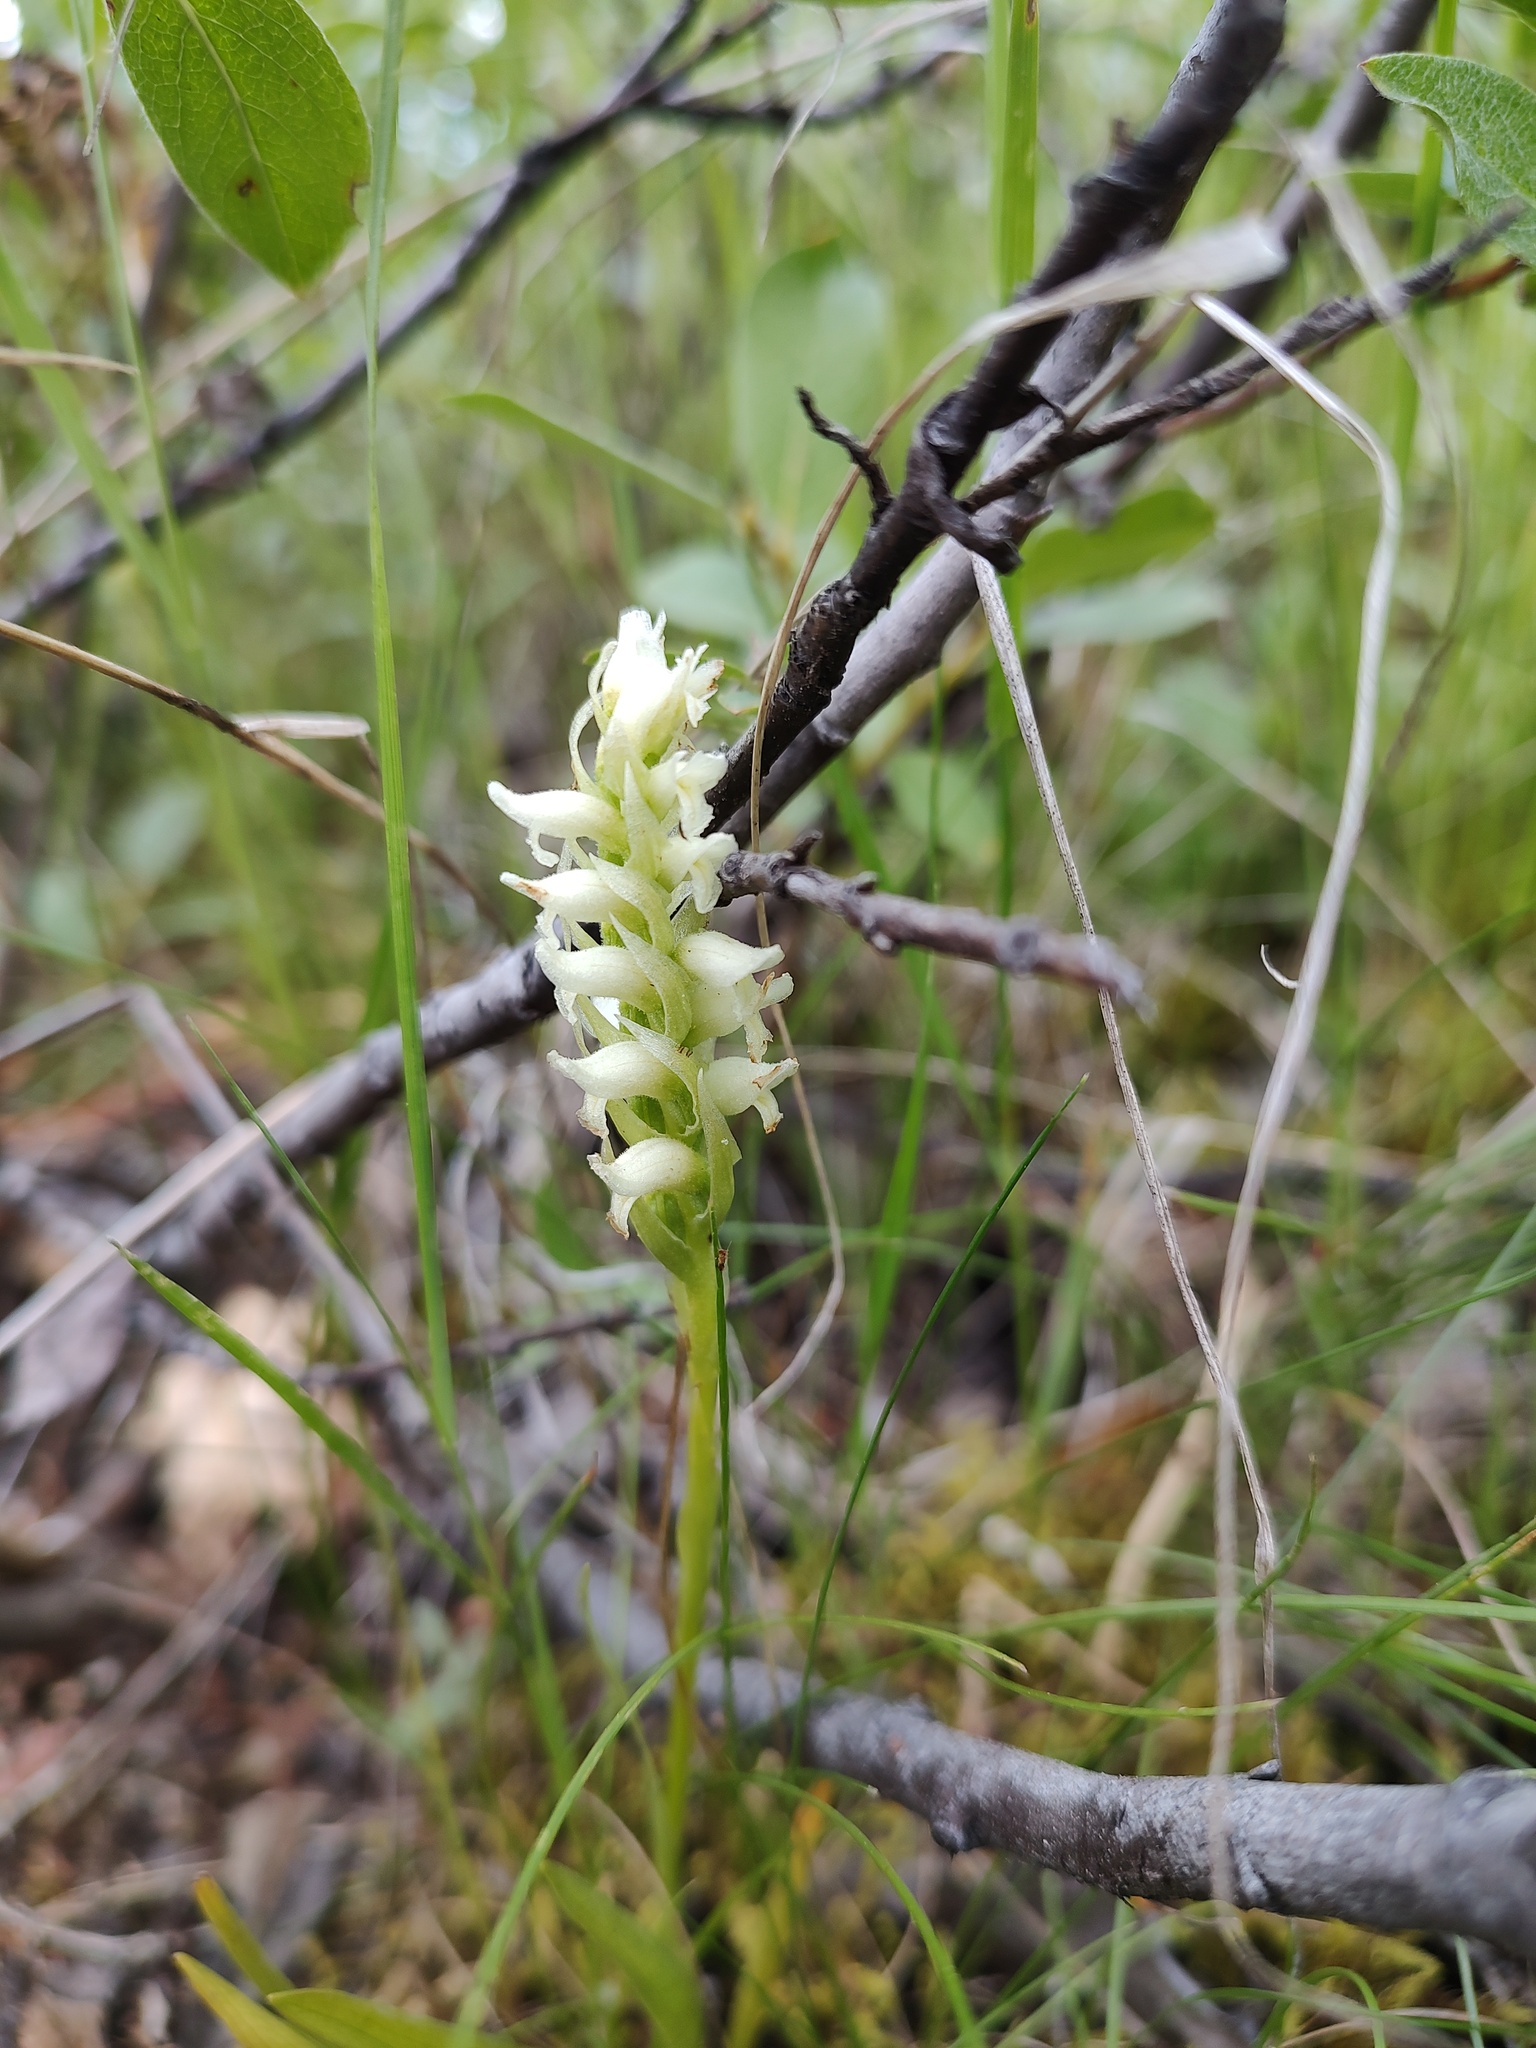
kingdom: Plantae
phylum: Tracheophyta
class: Liliopsida
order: Asparagales
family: Orchidaceae
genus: Spiranthes
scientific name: Spiranthes romanzoffiana
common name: Irish lady's-tresses
